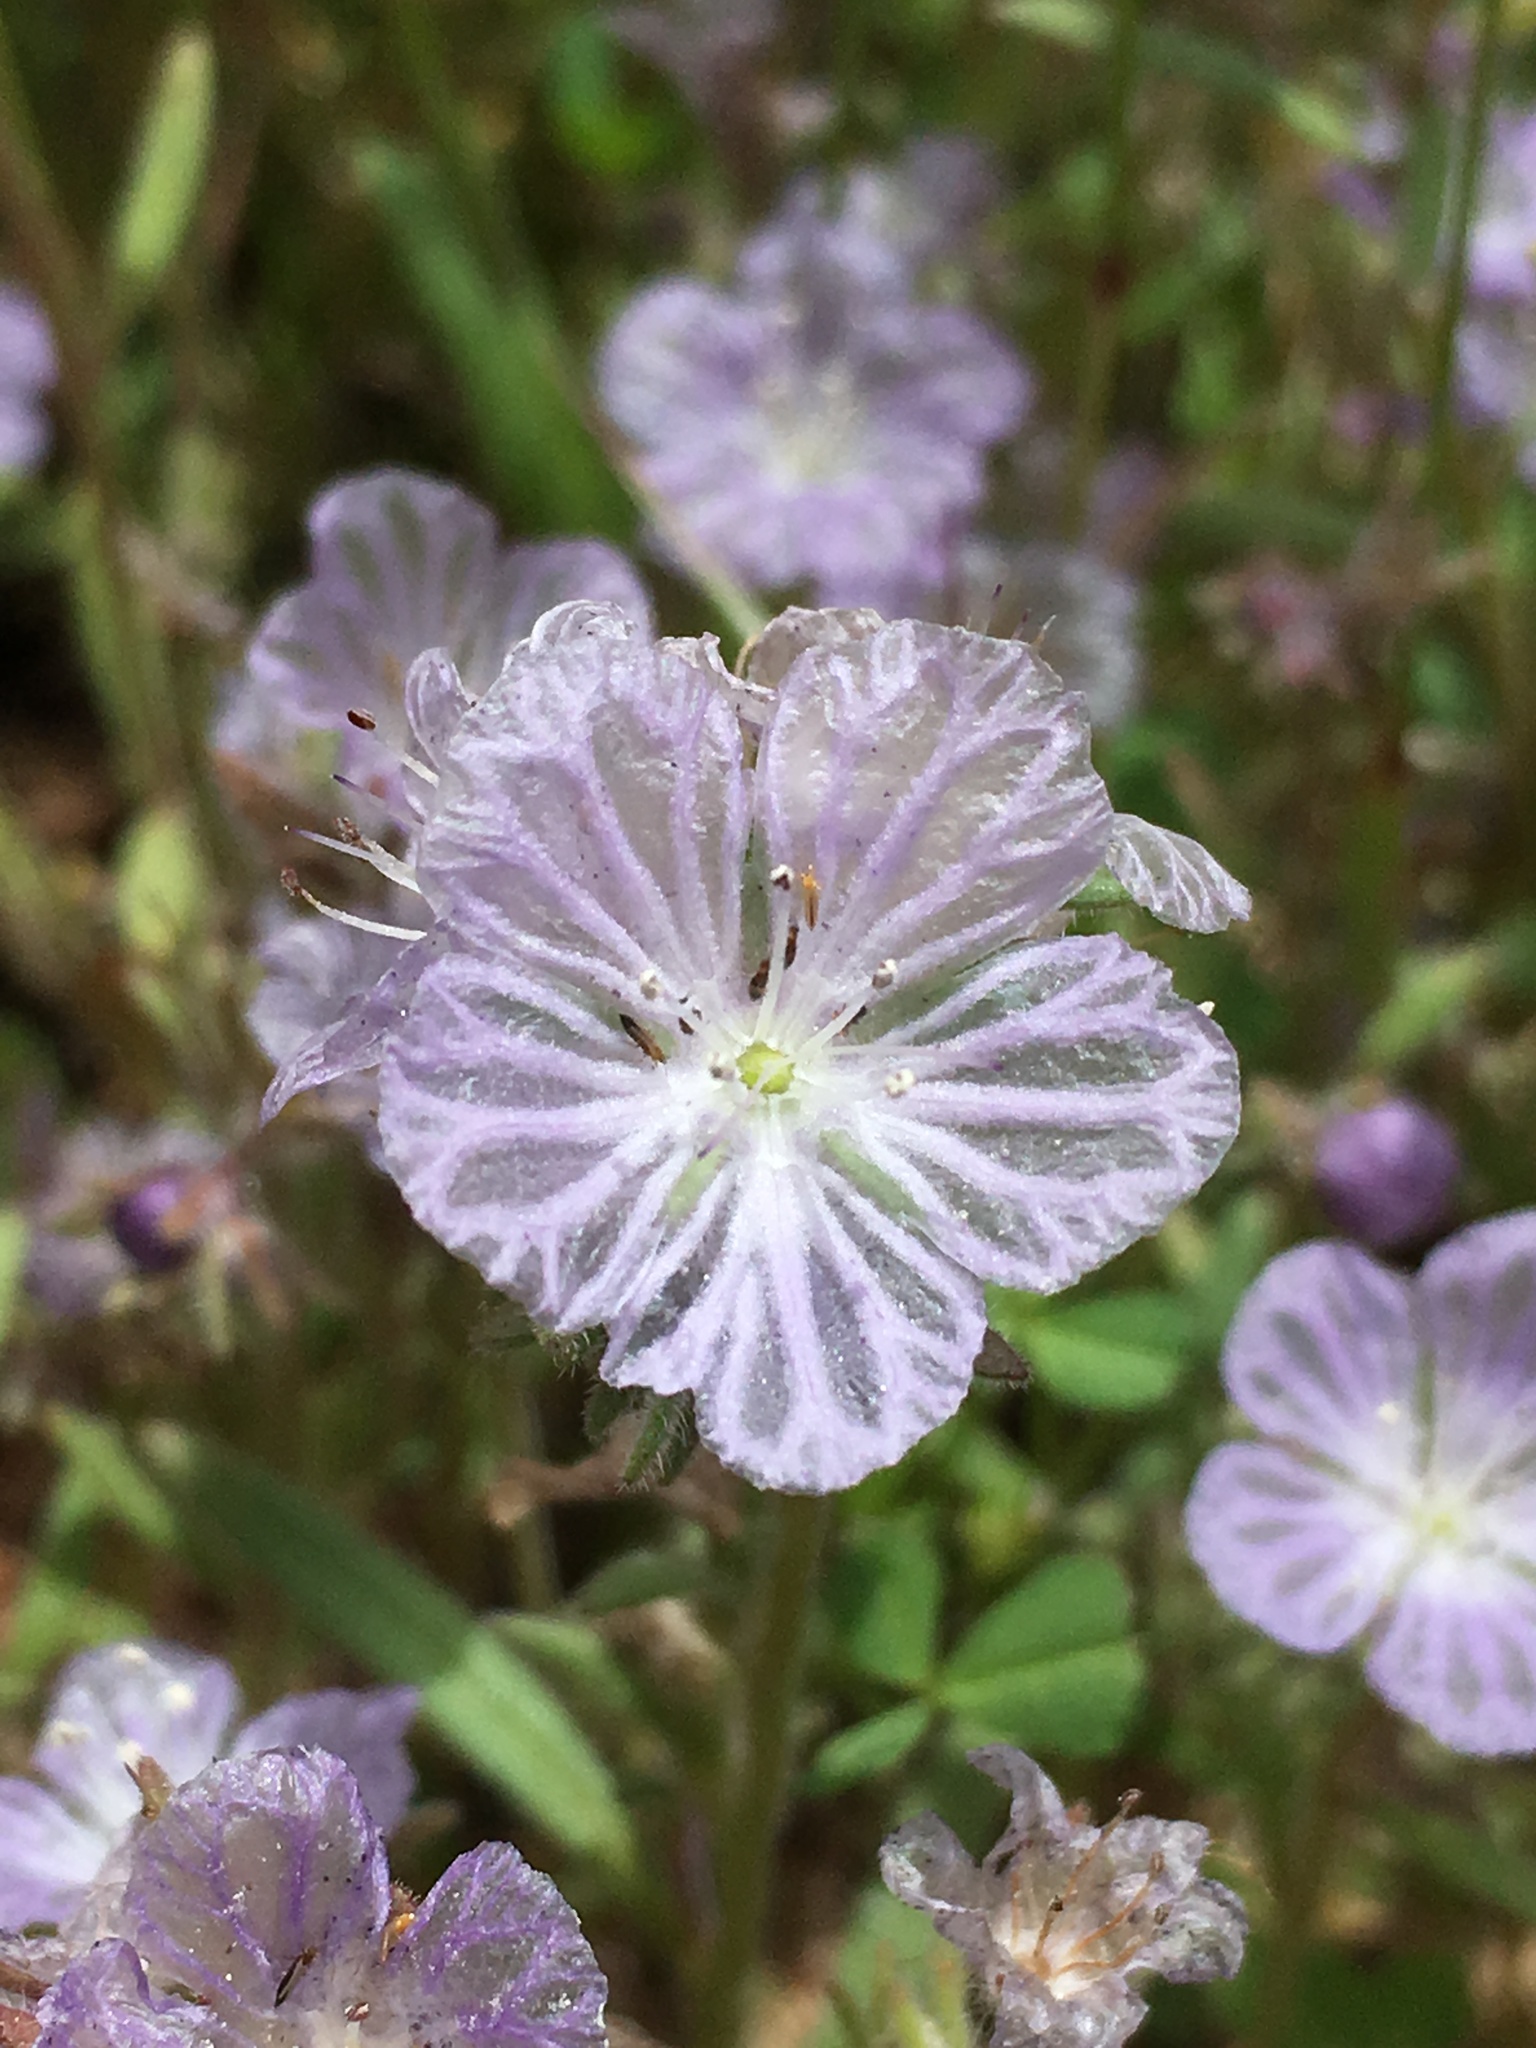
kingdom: Plantae
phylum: Tracheophyta
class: Magnoliopsida
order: Boraginales
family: Hydrophyllaceae
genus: Phacelia
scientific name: Phacelia exilis
